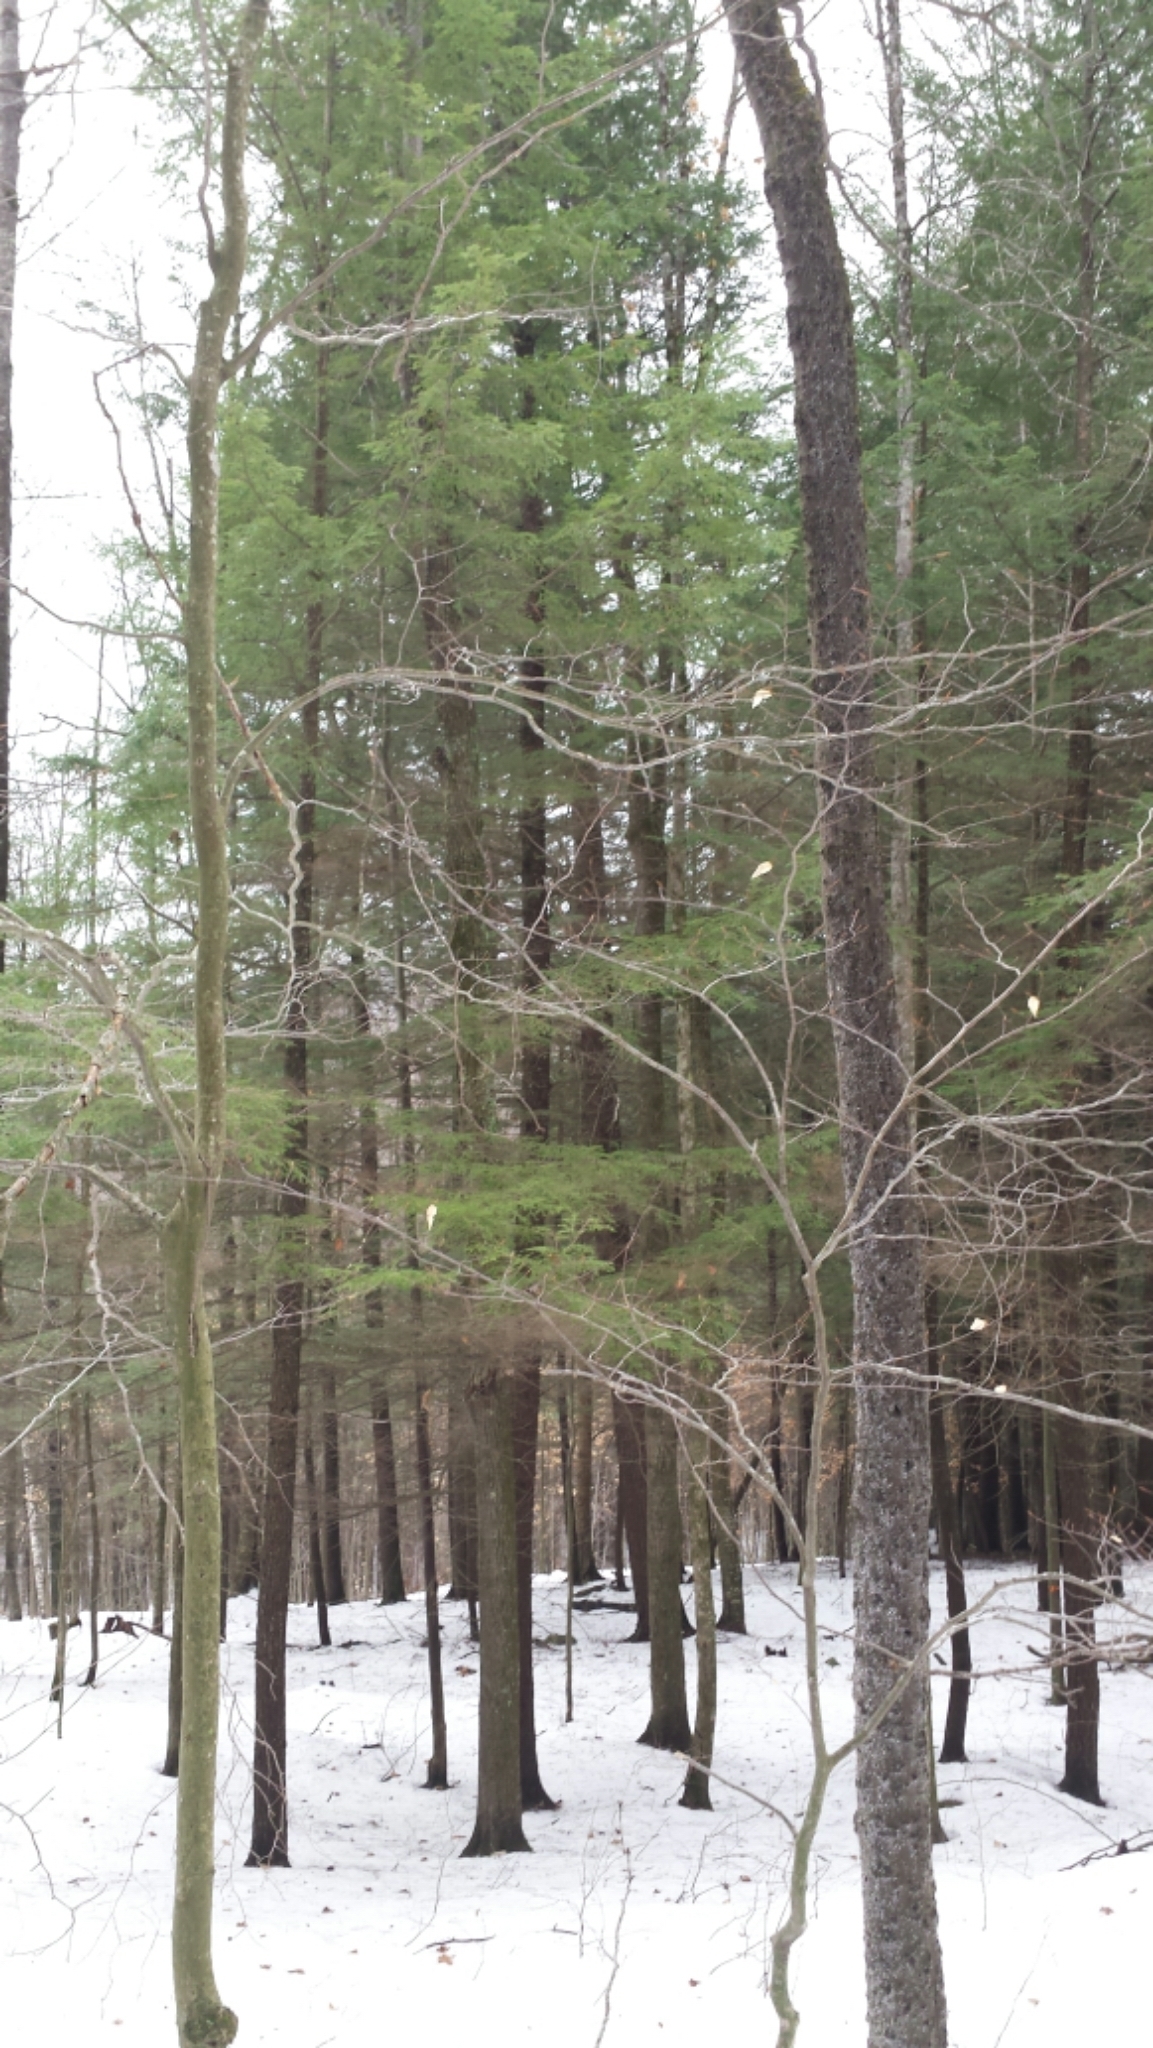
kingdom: Plantae
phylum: Tracheophyta
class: Pinopsida
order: Pinales
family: Pinaceae
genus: Tsuga
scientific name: Tsuga canadensis
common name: Eastern hemlock
